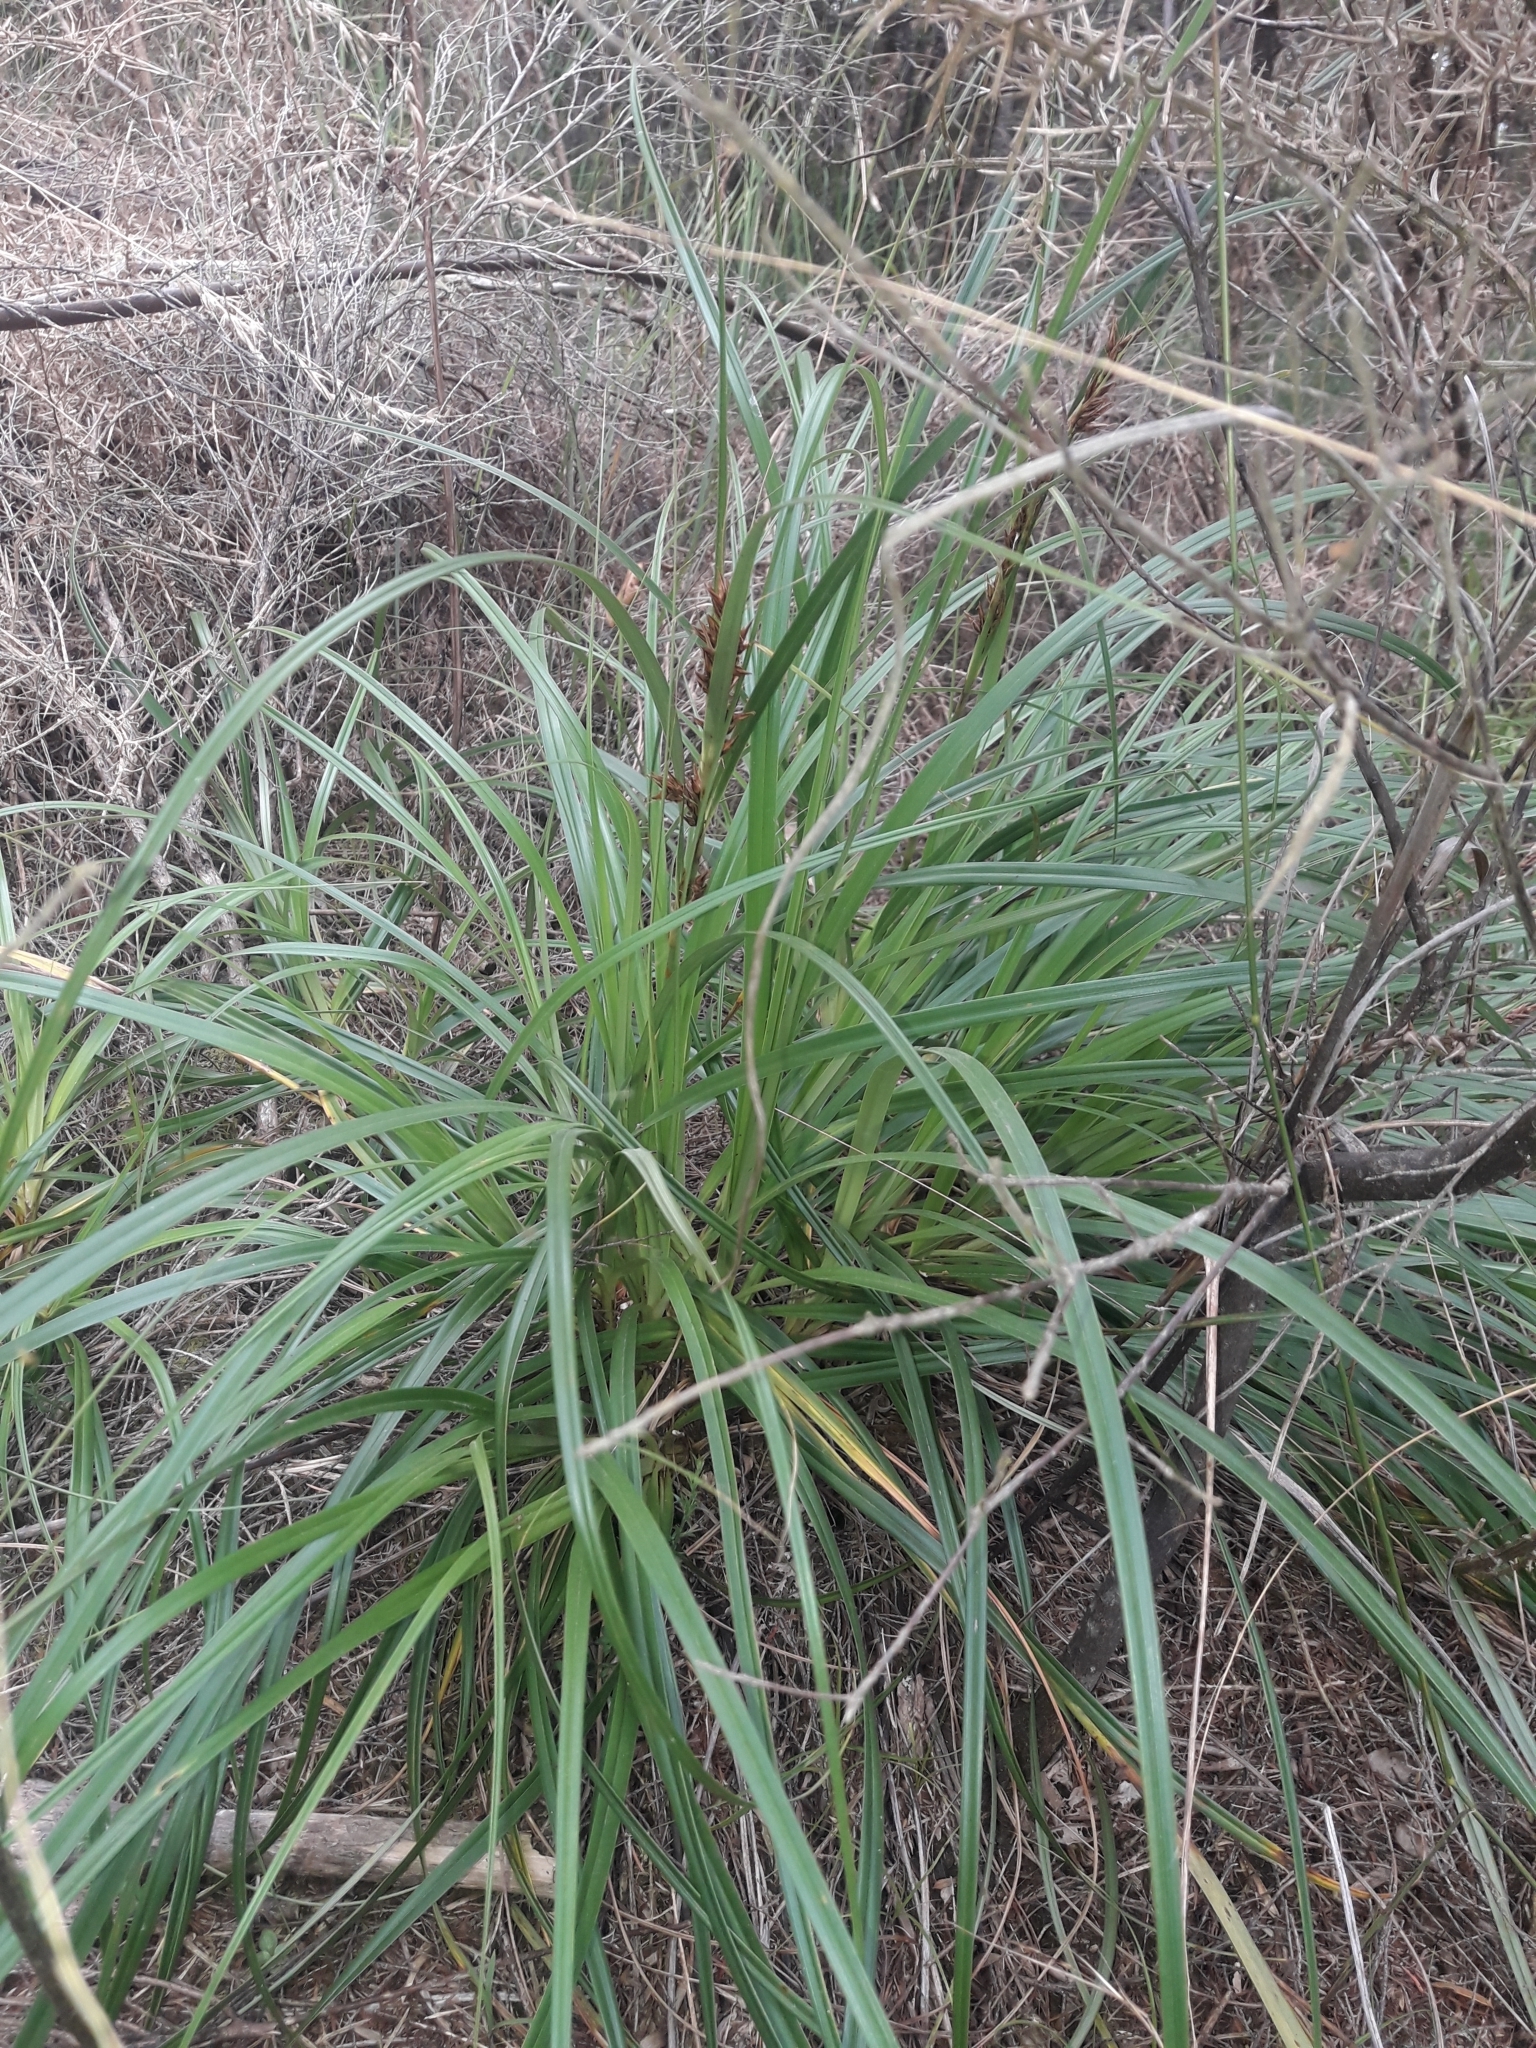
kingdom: Plantae
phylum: Tracheophyta
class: Liliopsida
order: Poales
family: Cyperaceae
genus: Morelotia
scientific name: Morelotia affinis
